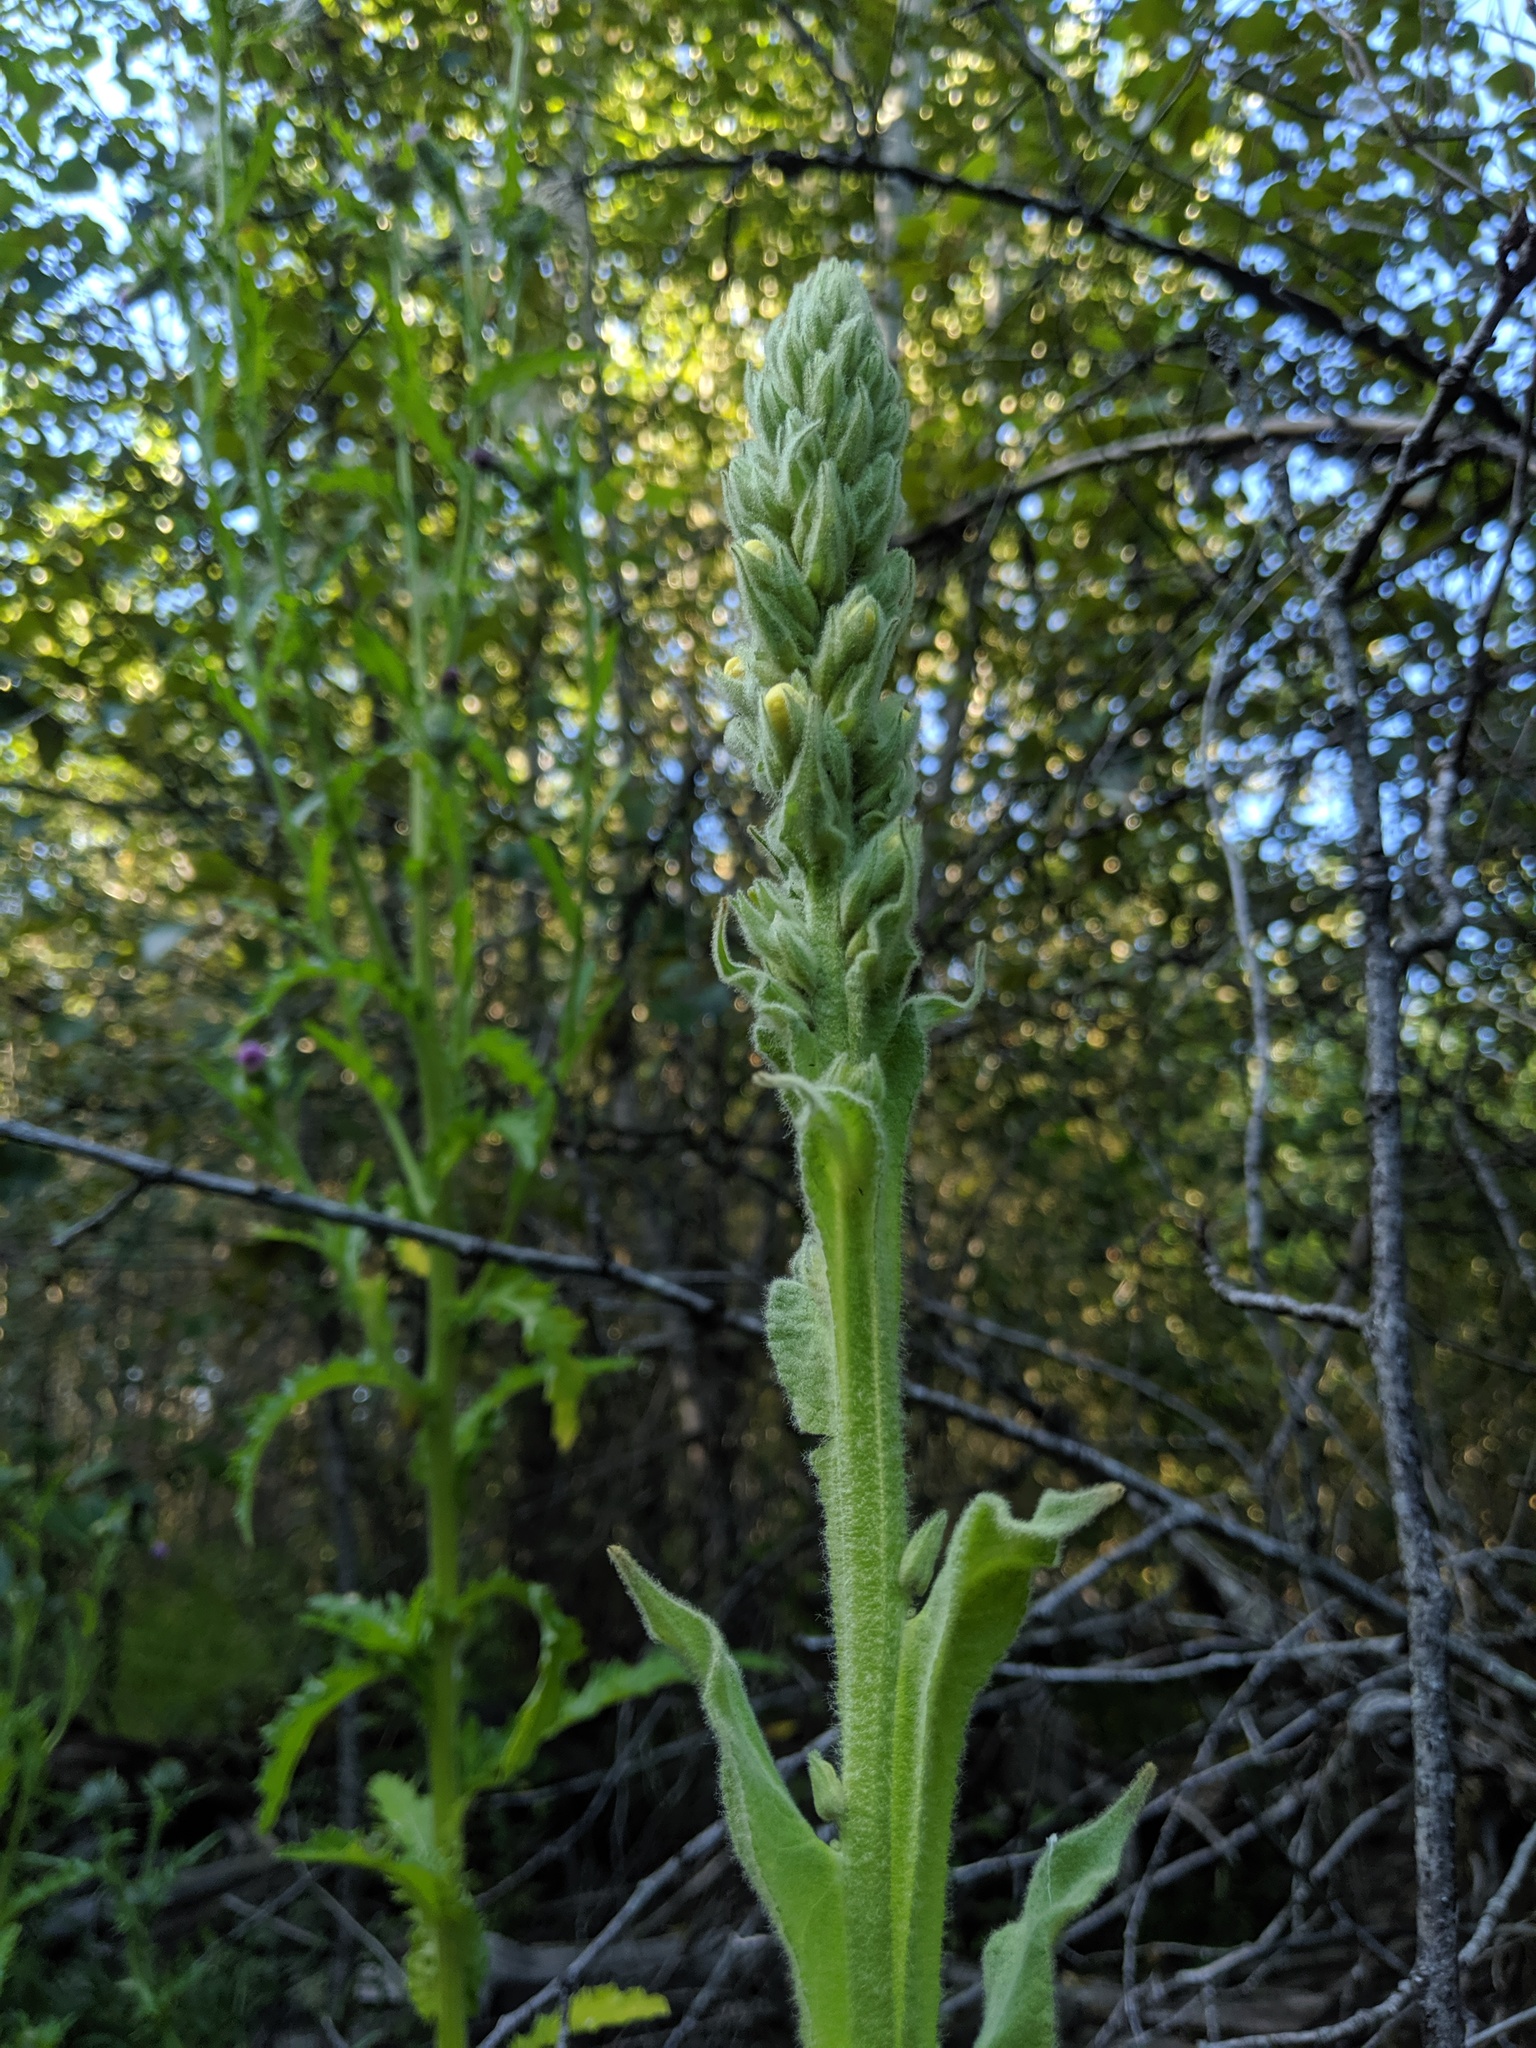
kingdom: Plantae
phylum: Tracheophyta
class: Magnoliopsida
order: Lamiales
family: Scrophulariaceae
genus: Verbascum
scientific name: Verbascum thapsus
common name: Common mullein
